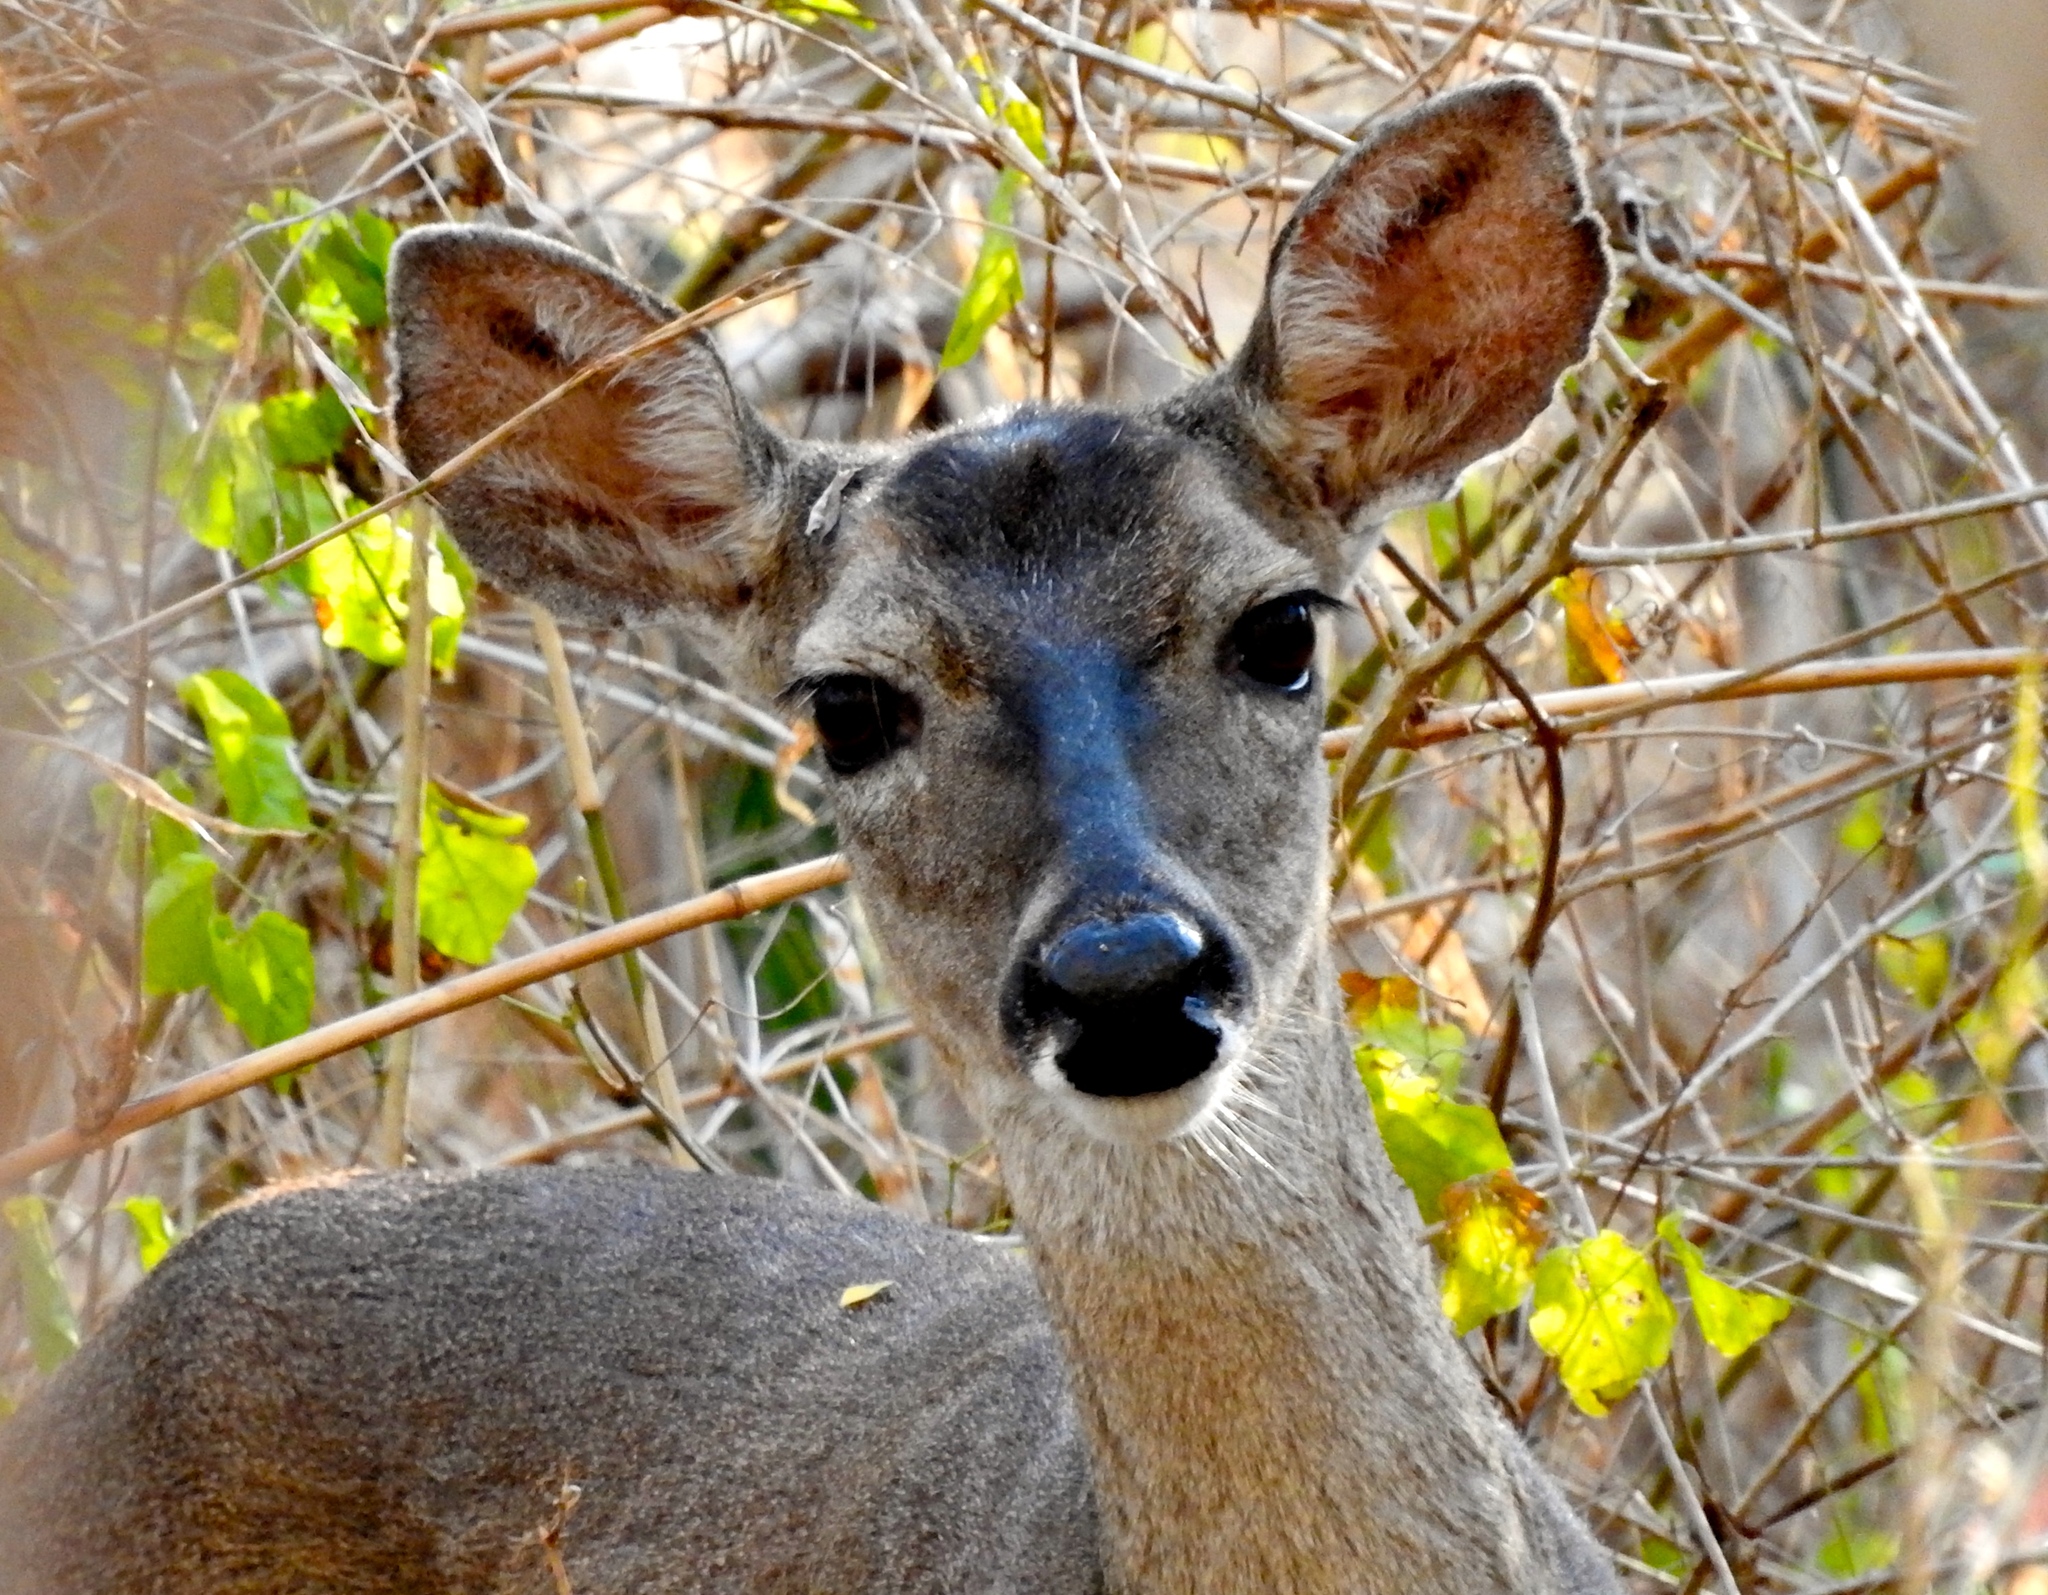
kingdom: Animalia
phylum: Chordata
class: Mammalia
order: Artiodactyla
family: Cervidae
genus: Odocoileus
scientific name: Odocoileus virginianus
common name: White-tailed deer
